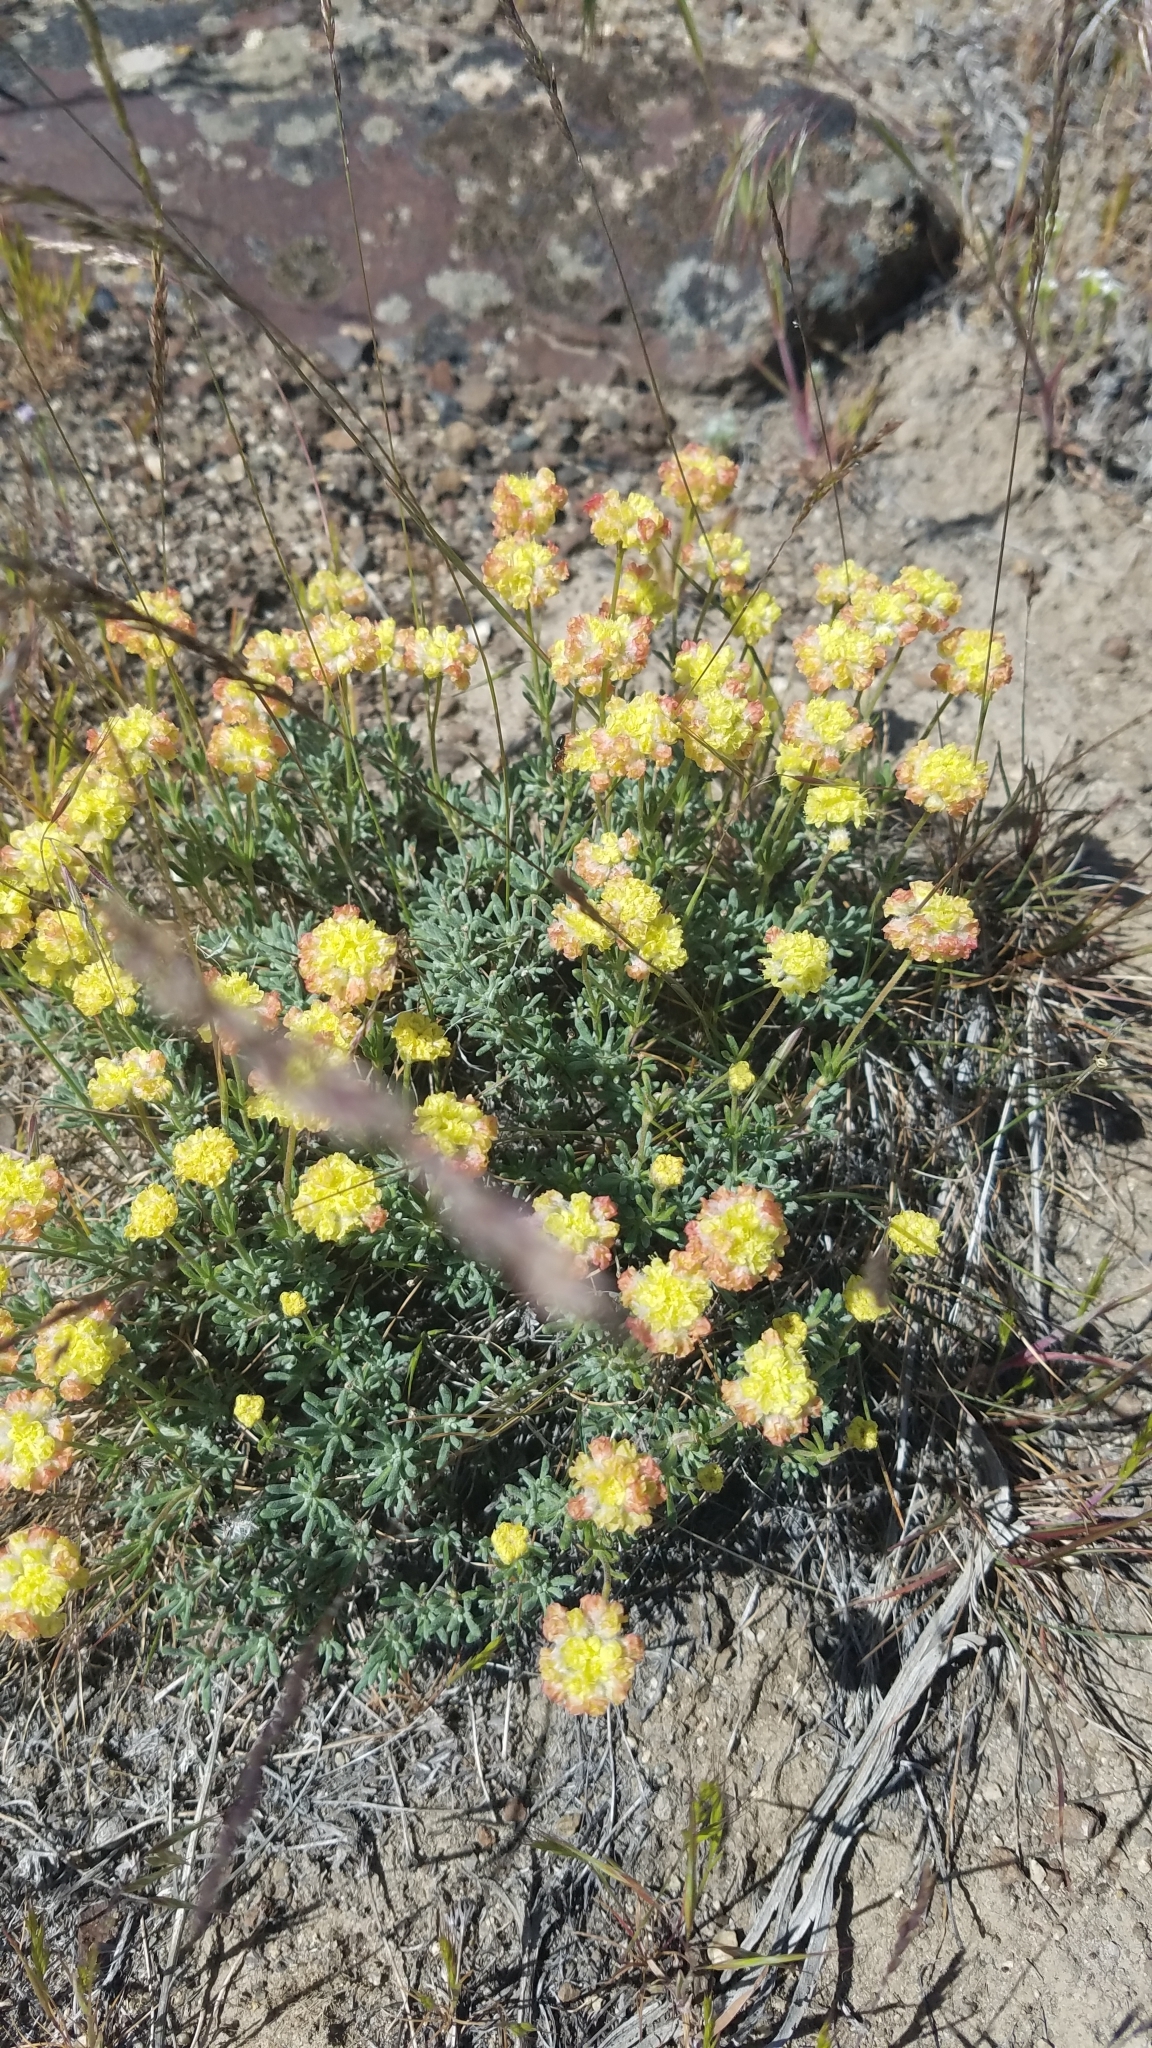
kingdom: Plantae
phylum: Tracheophyta
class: Magnoliopsida
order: Caryophyllales
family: Polygonaceae
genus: Eriogonum
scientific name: Eriogonum thymoides
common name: Thyme-leaf wild buckwheat
